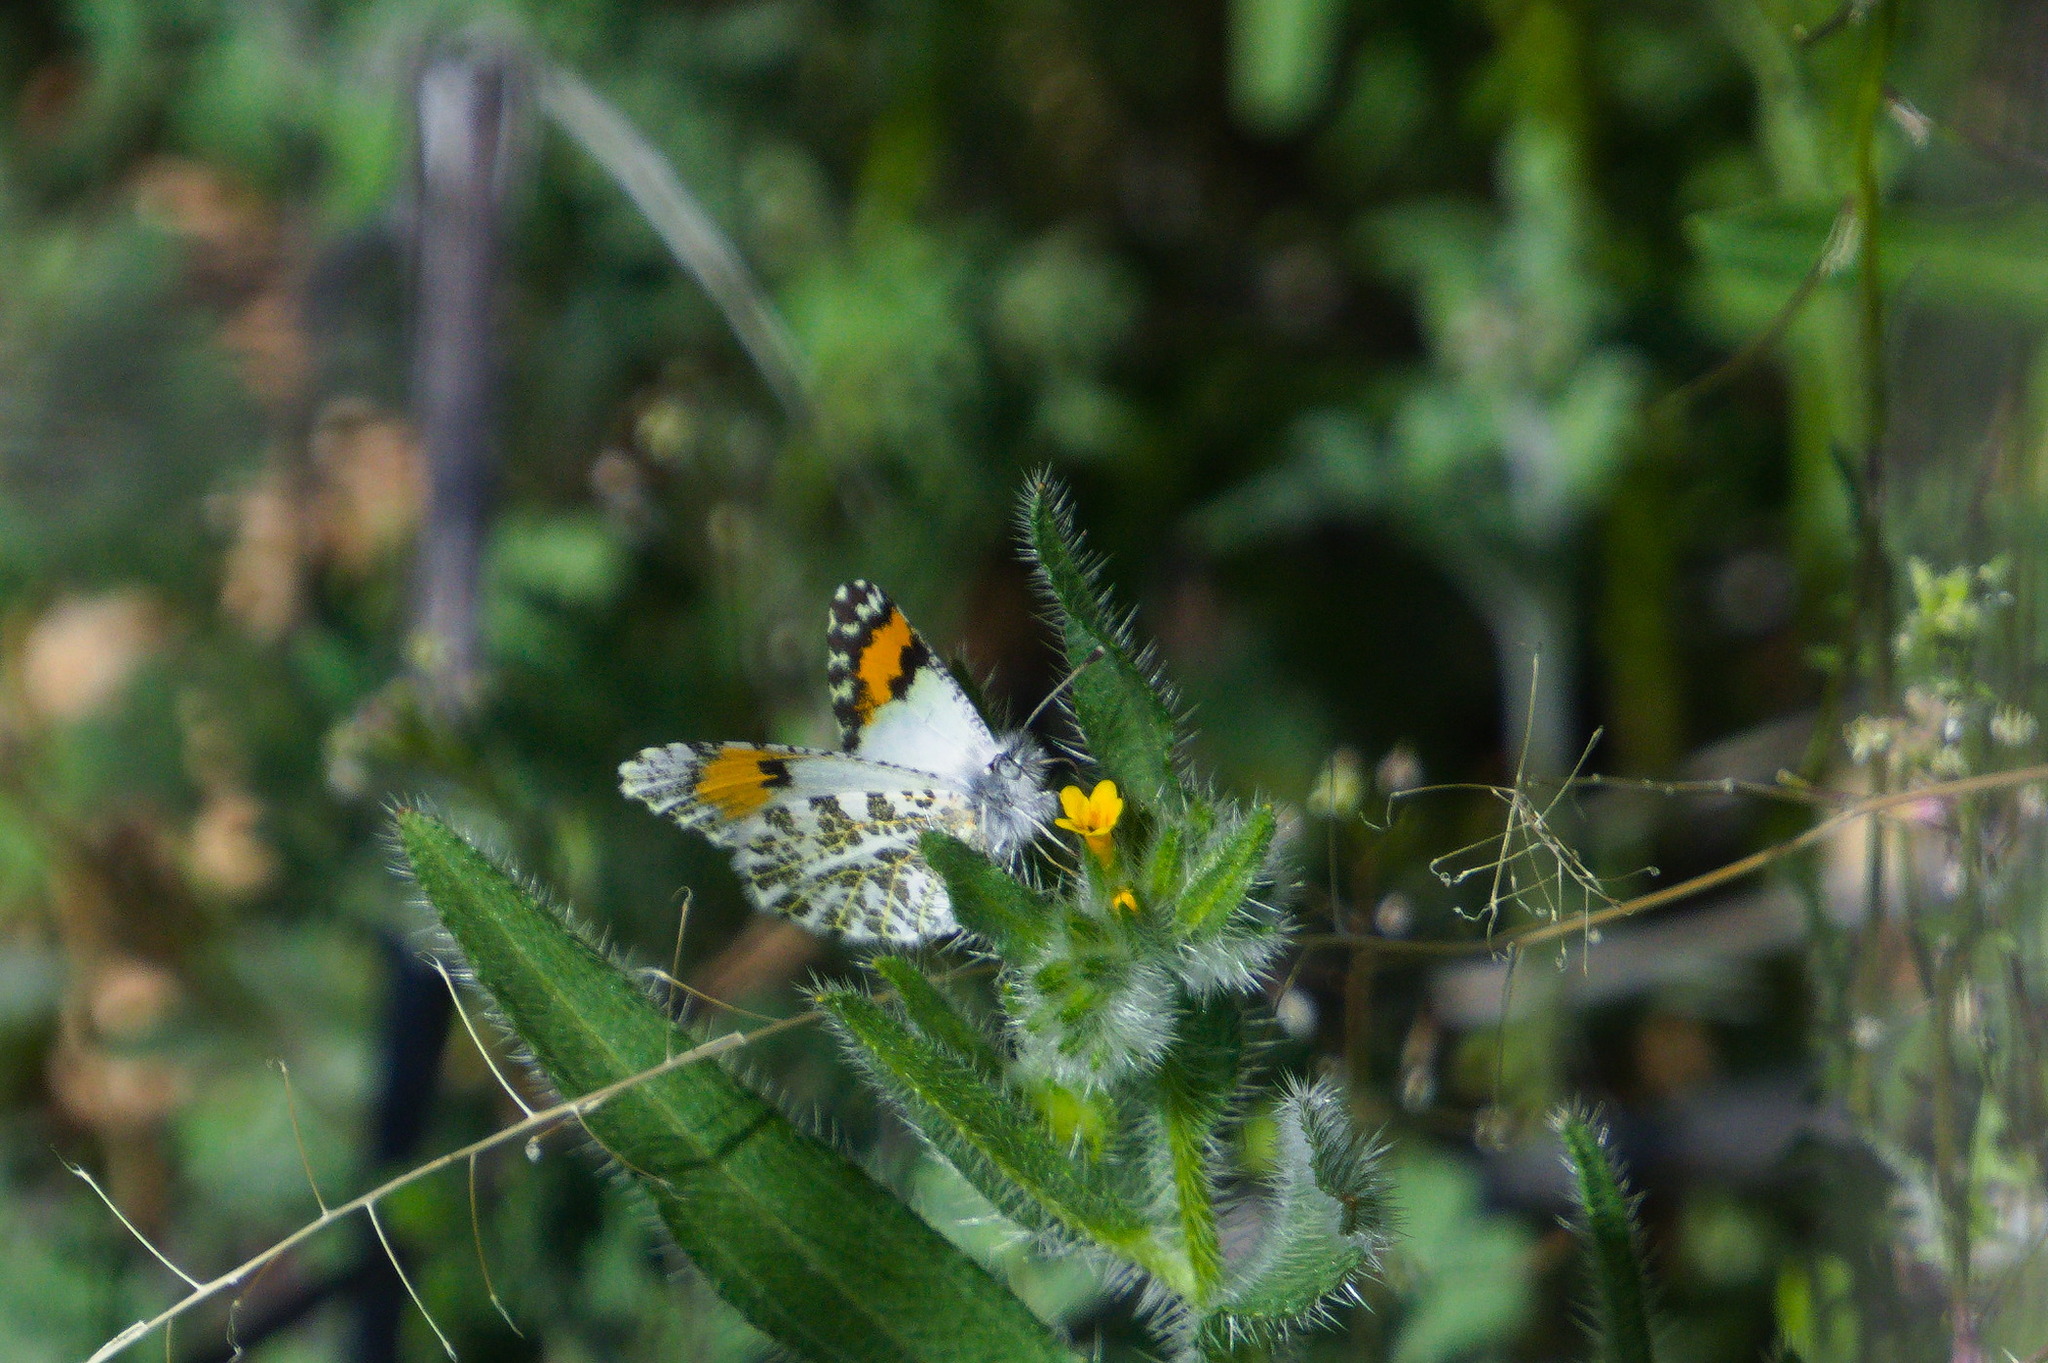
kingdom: Animalia
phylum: Arthropoda
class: Insecta
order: Lepidoptera
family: Pieridae
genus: Anthocharis
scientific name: Anthocharis thoosa
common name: Southwestern orangetip
